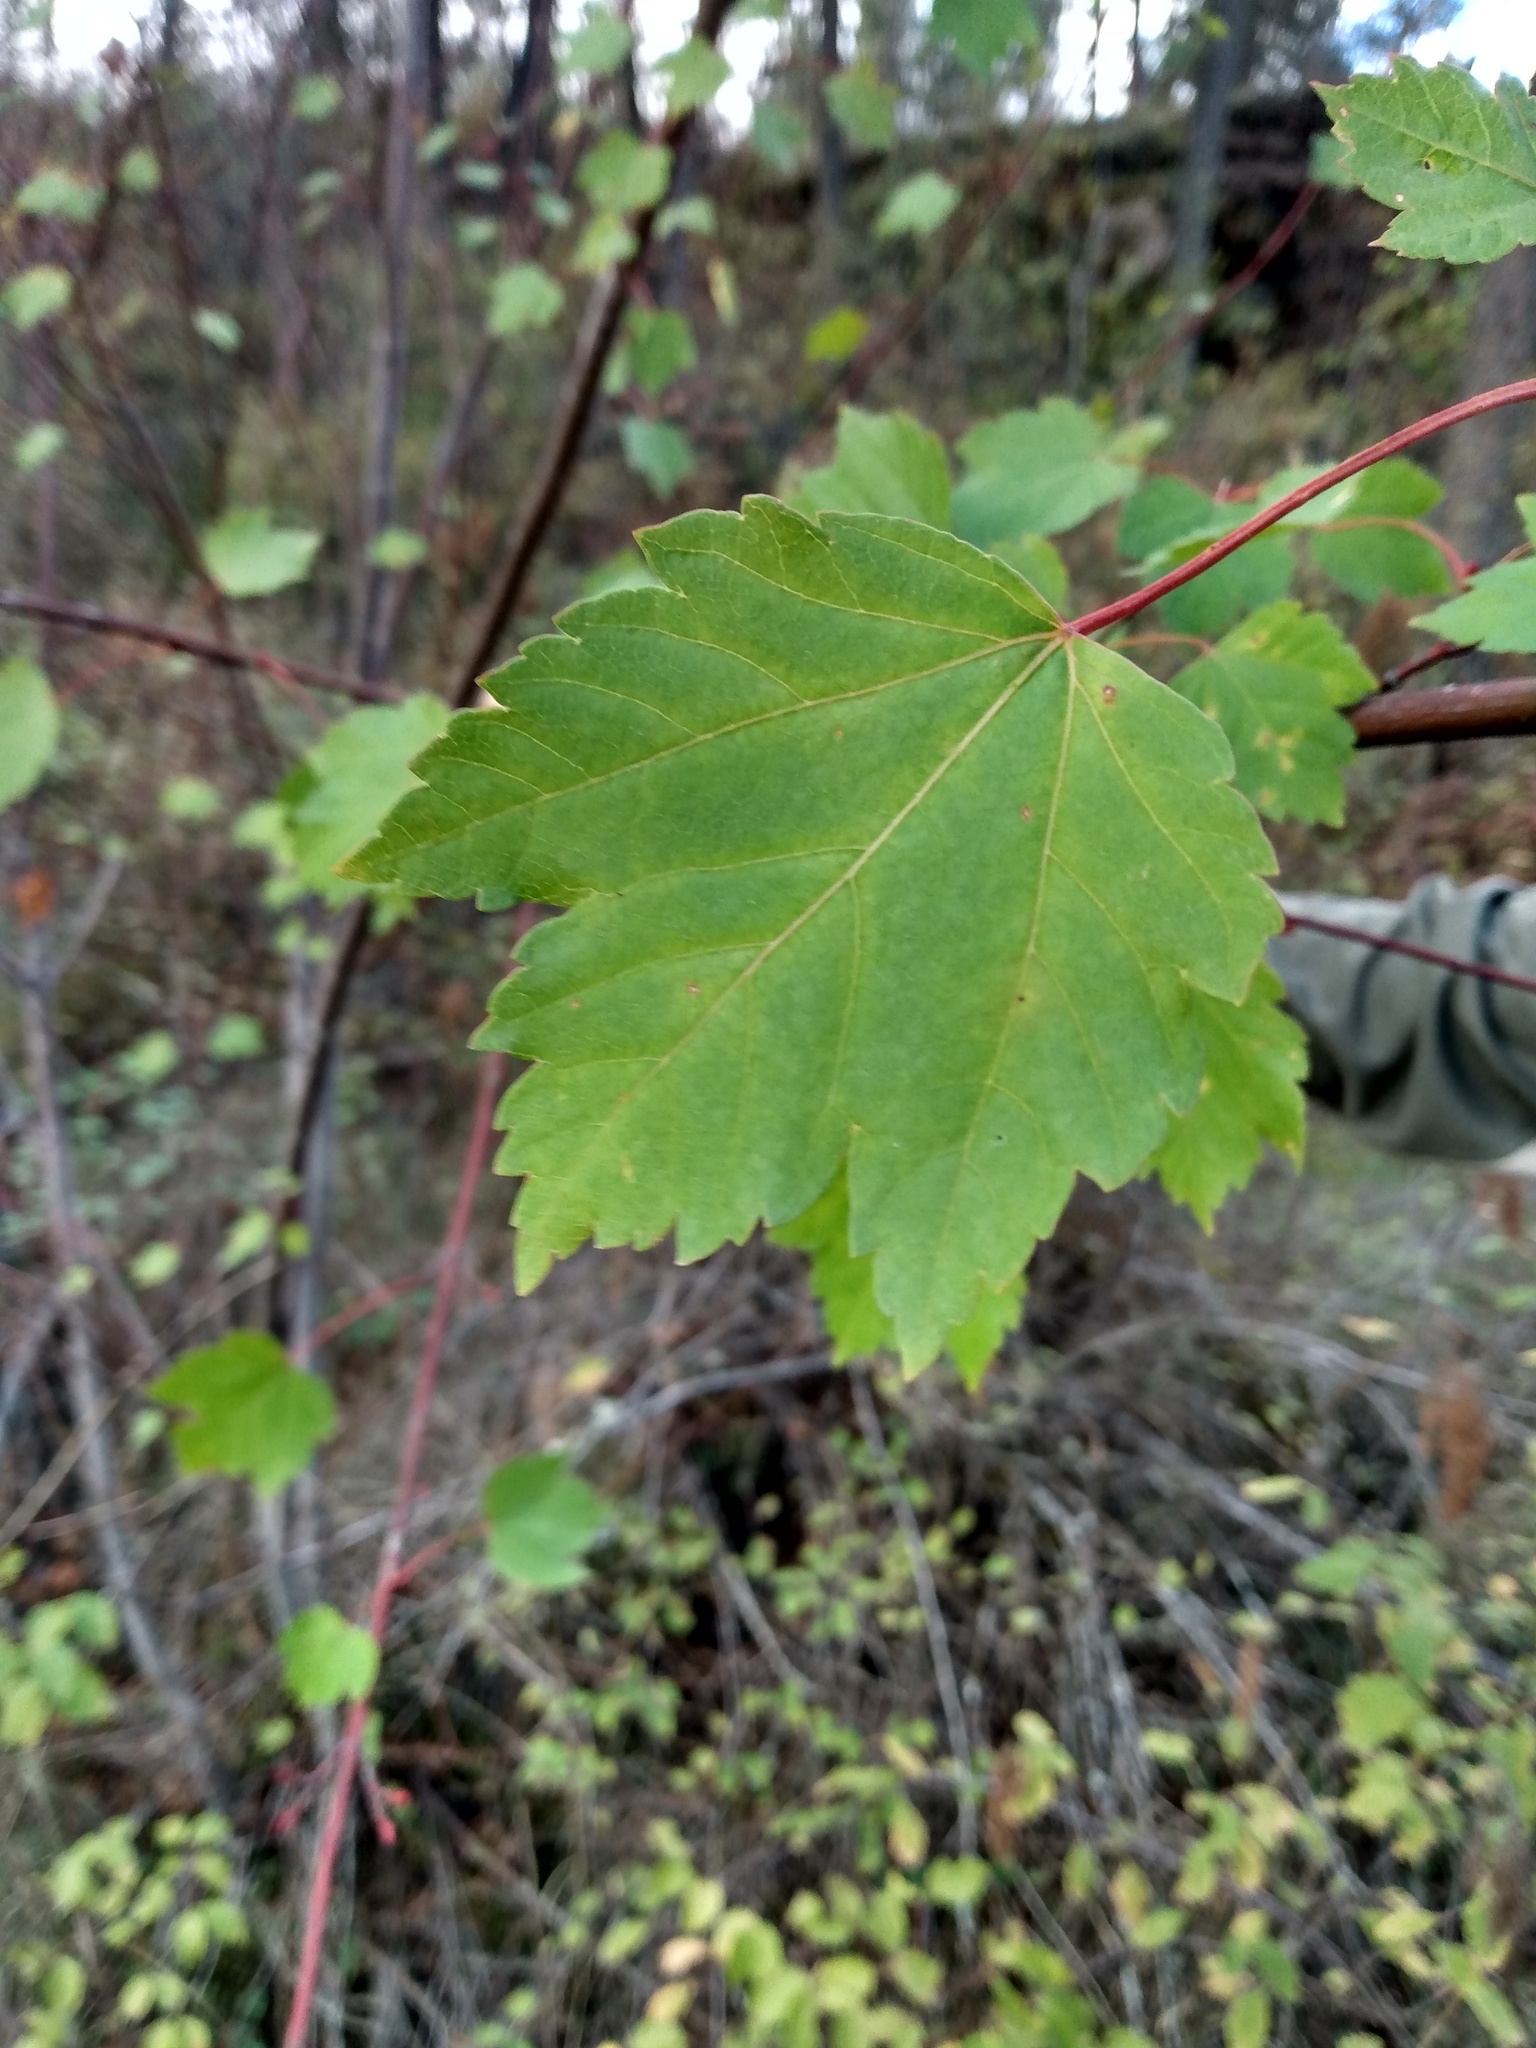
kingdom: Plantae
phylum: Tracheophyta
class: Magnoliopsida
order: Sapindales
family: Sapindaceae
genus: Acer
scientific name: Acer glabrum
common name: Rocky mountain maple
